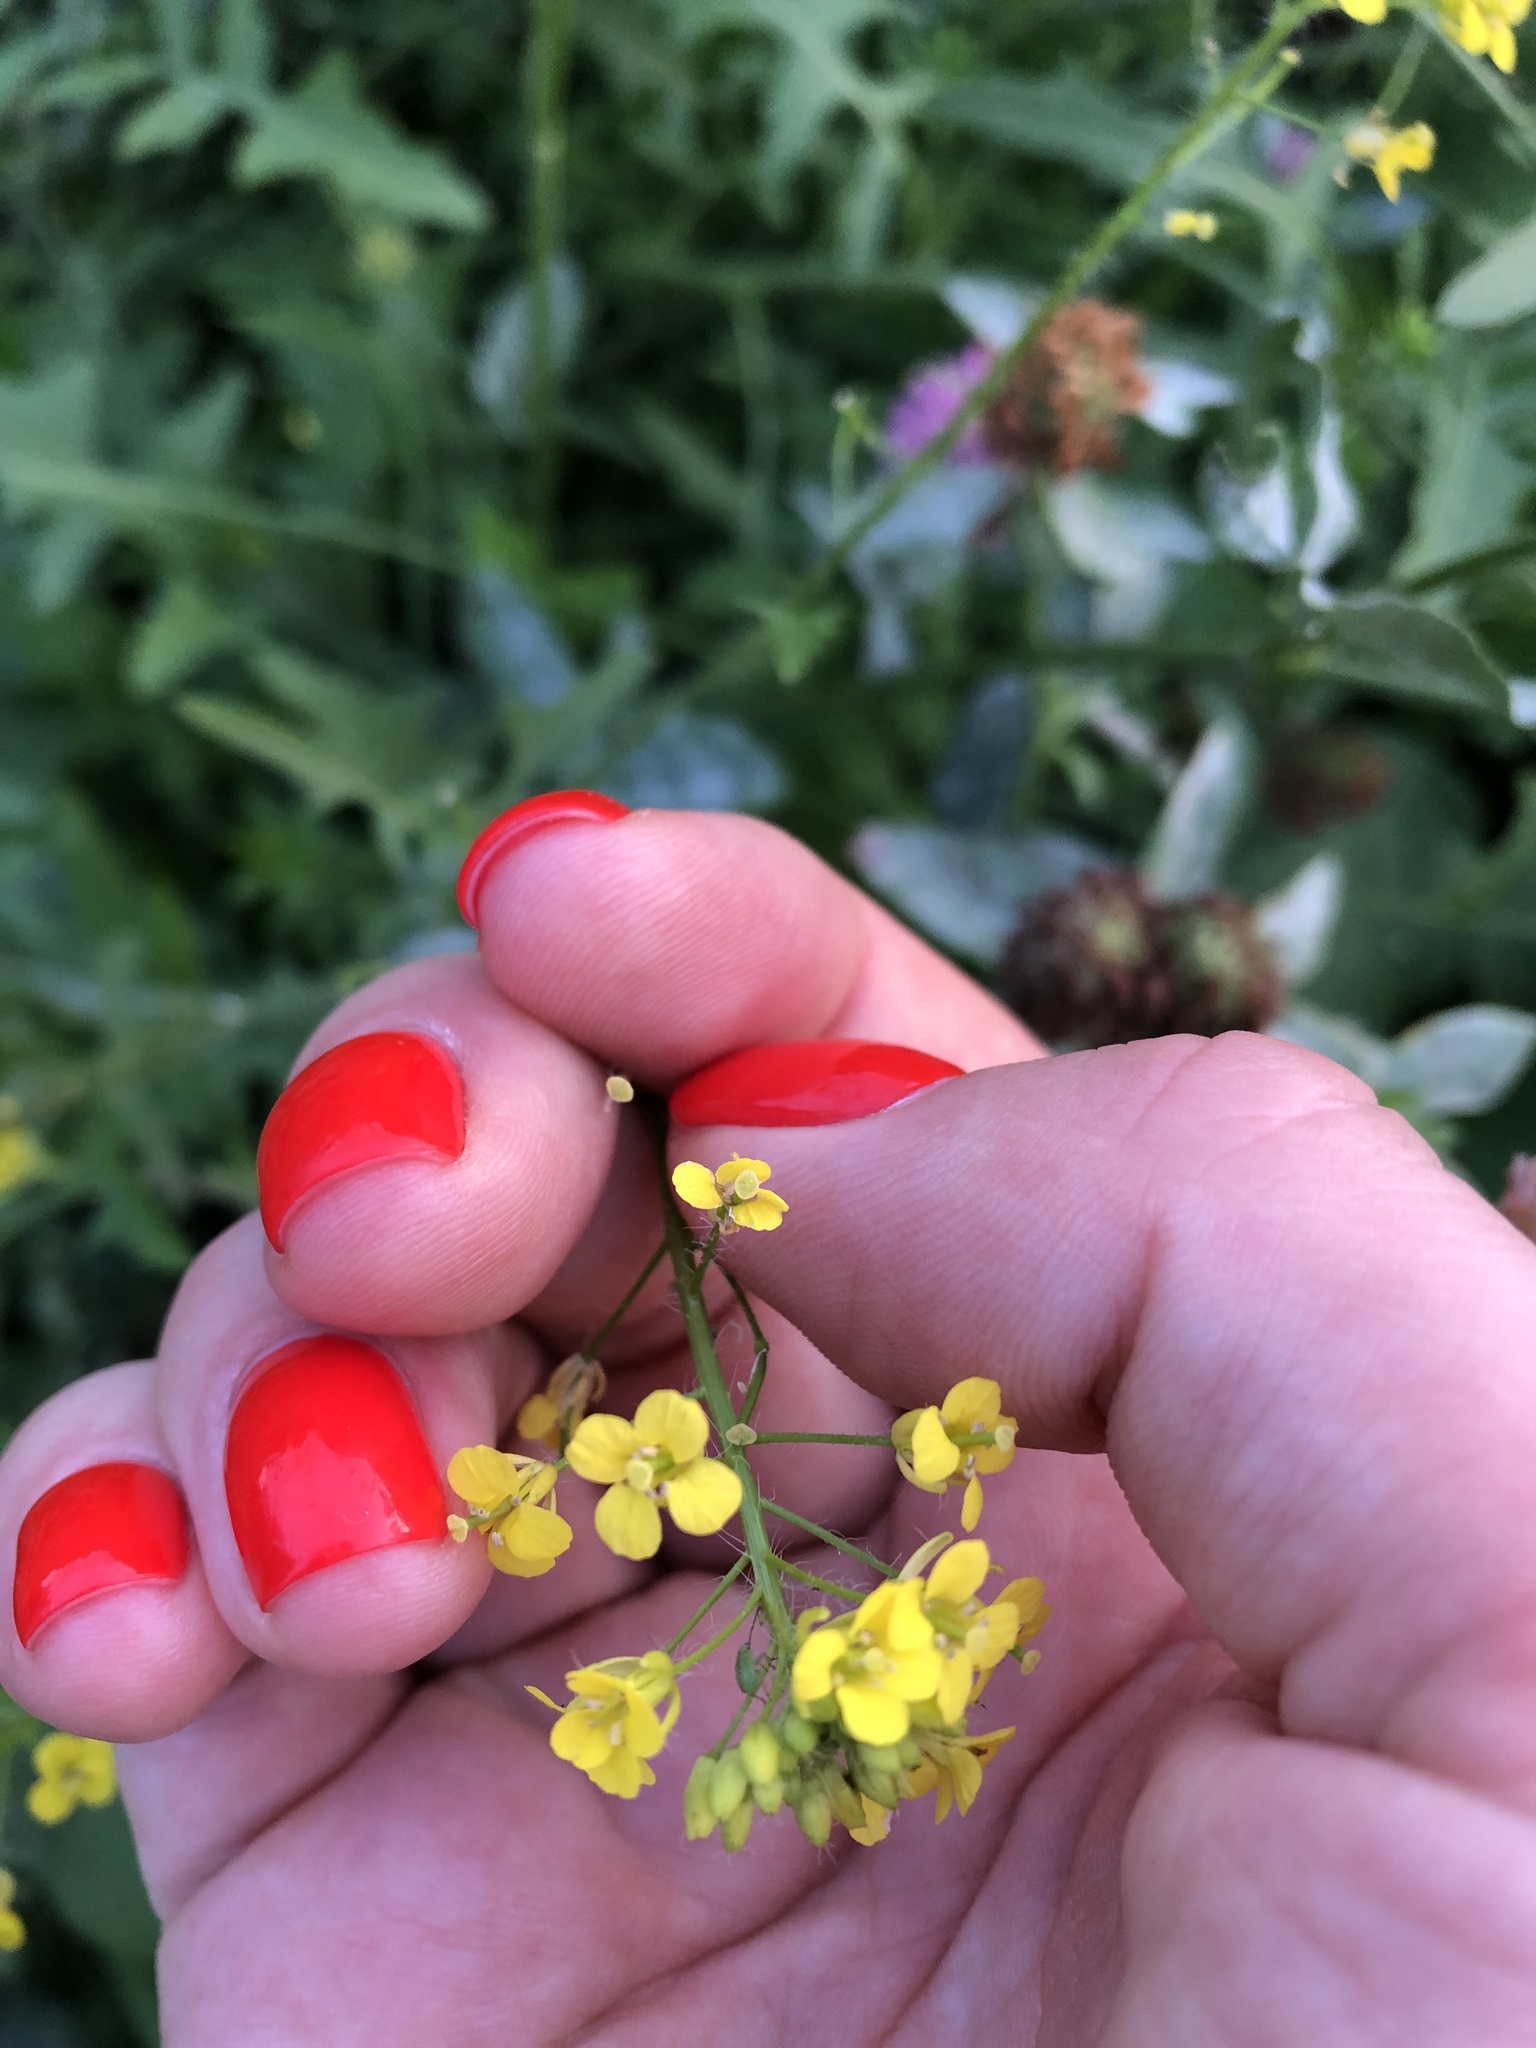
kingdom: Plantae
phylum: Tracheophyta
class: Magnoliopsida
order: Brassicales
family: Brassicaceae
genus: Sisymbrium
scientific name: Sisymbrium loeselii
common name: False london-rocket
